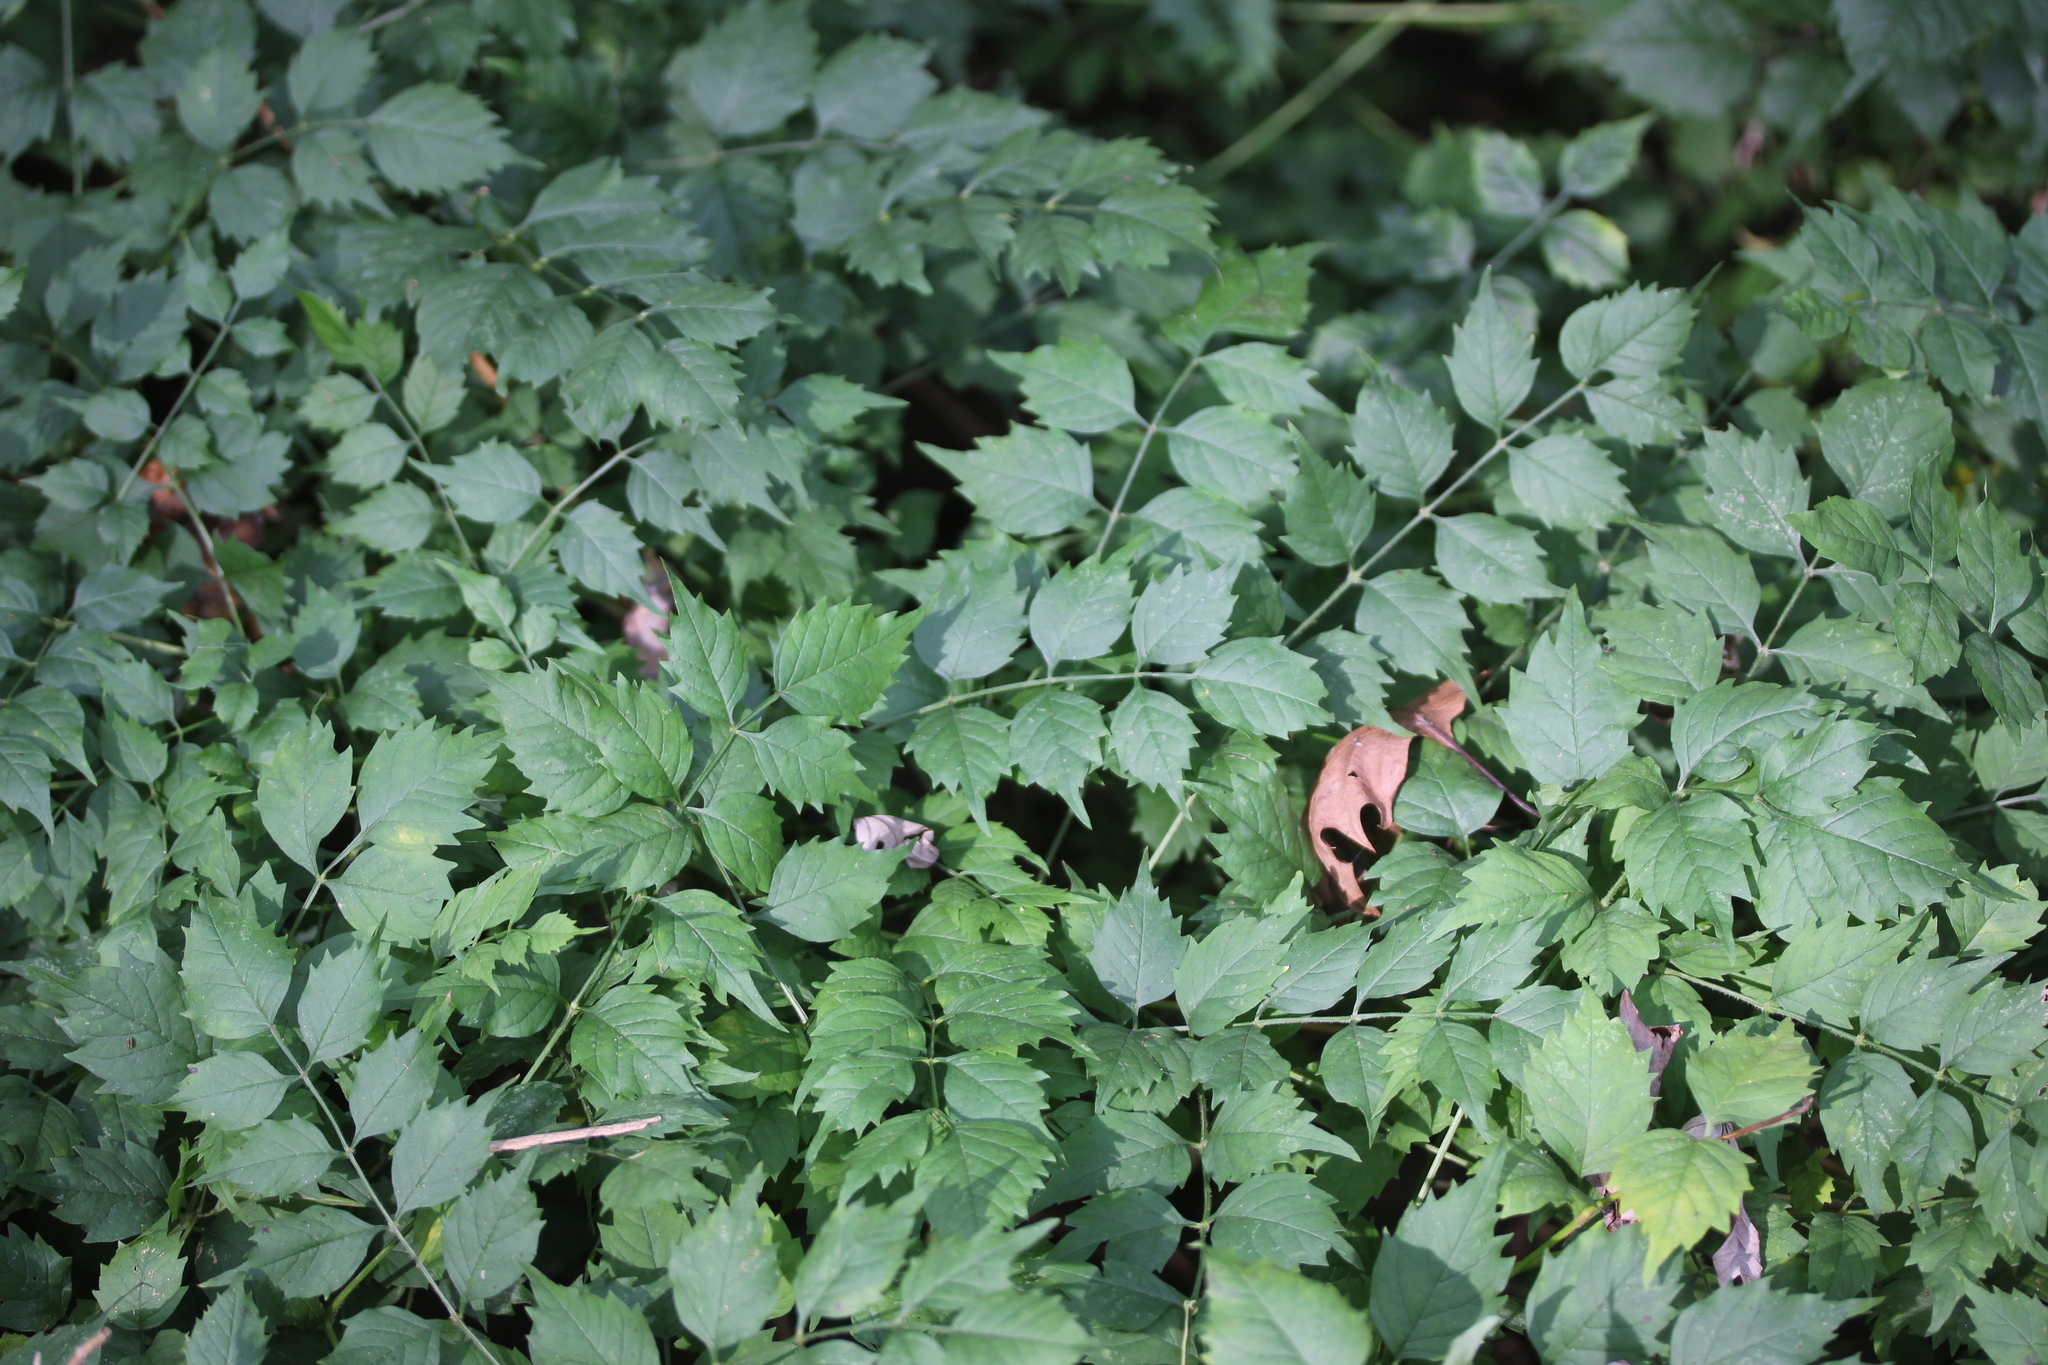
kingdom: Plantae
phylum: Tracheophyta
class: Magnoliopsida
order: Lamiales
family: Bignoniaceae
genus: Campsis
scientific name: Campsis radicans
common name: Trumpet-creeper
